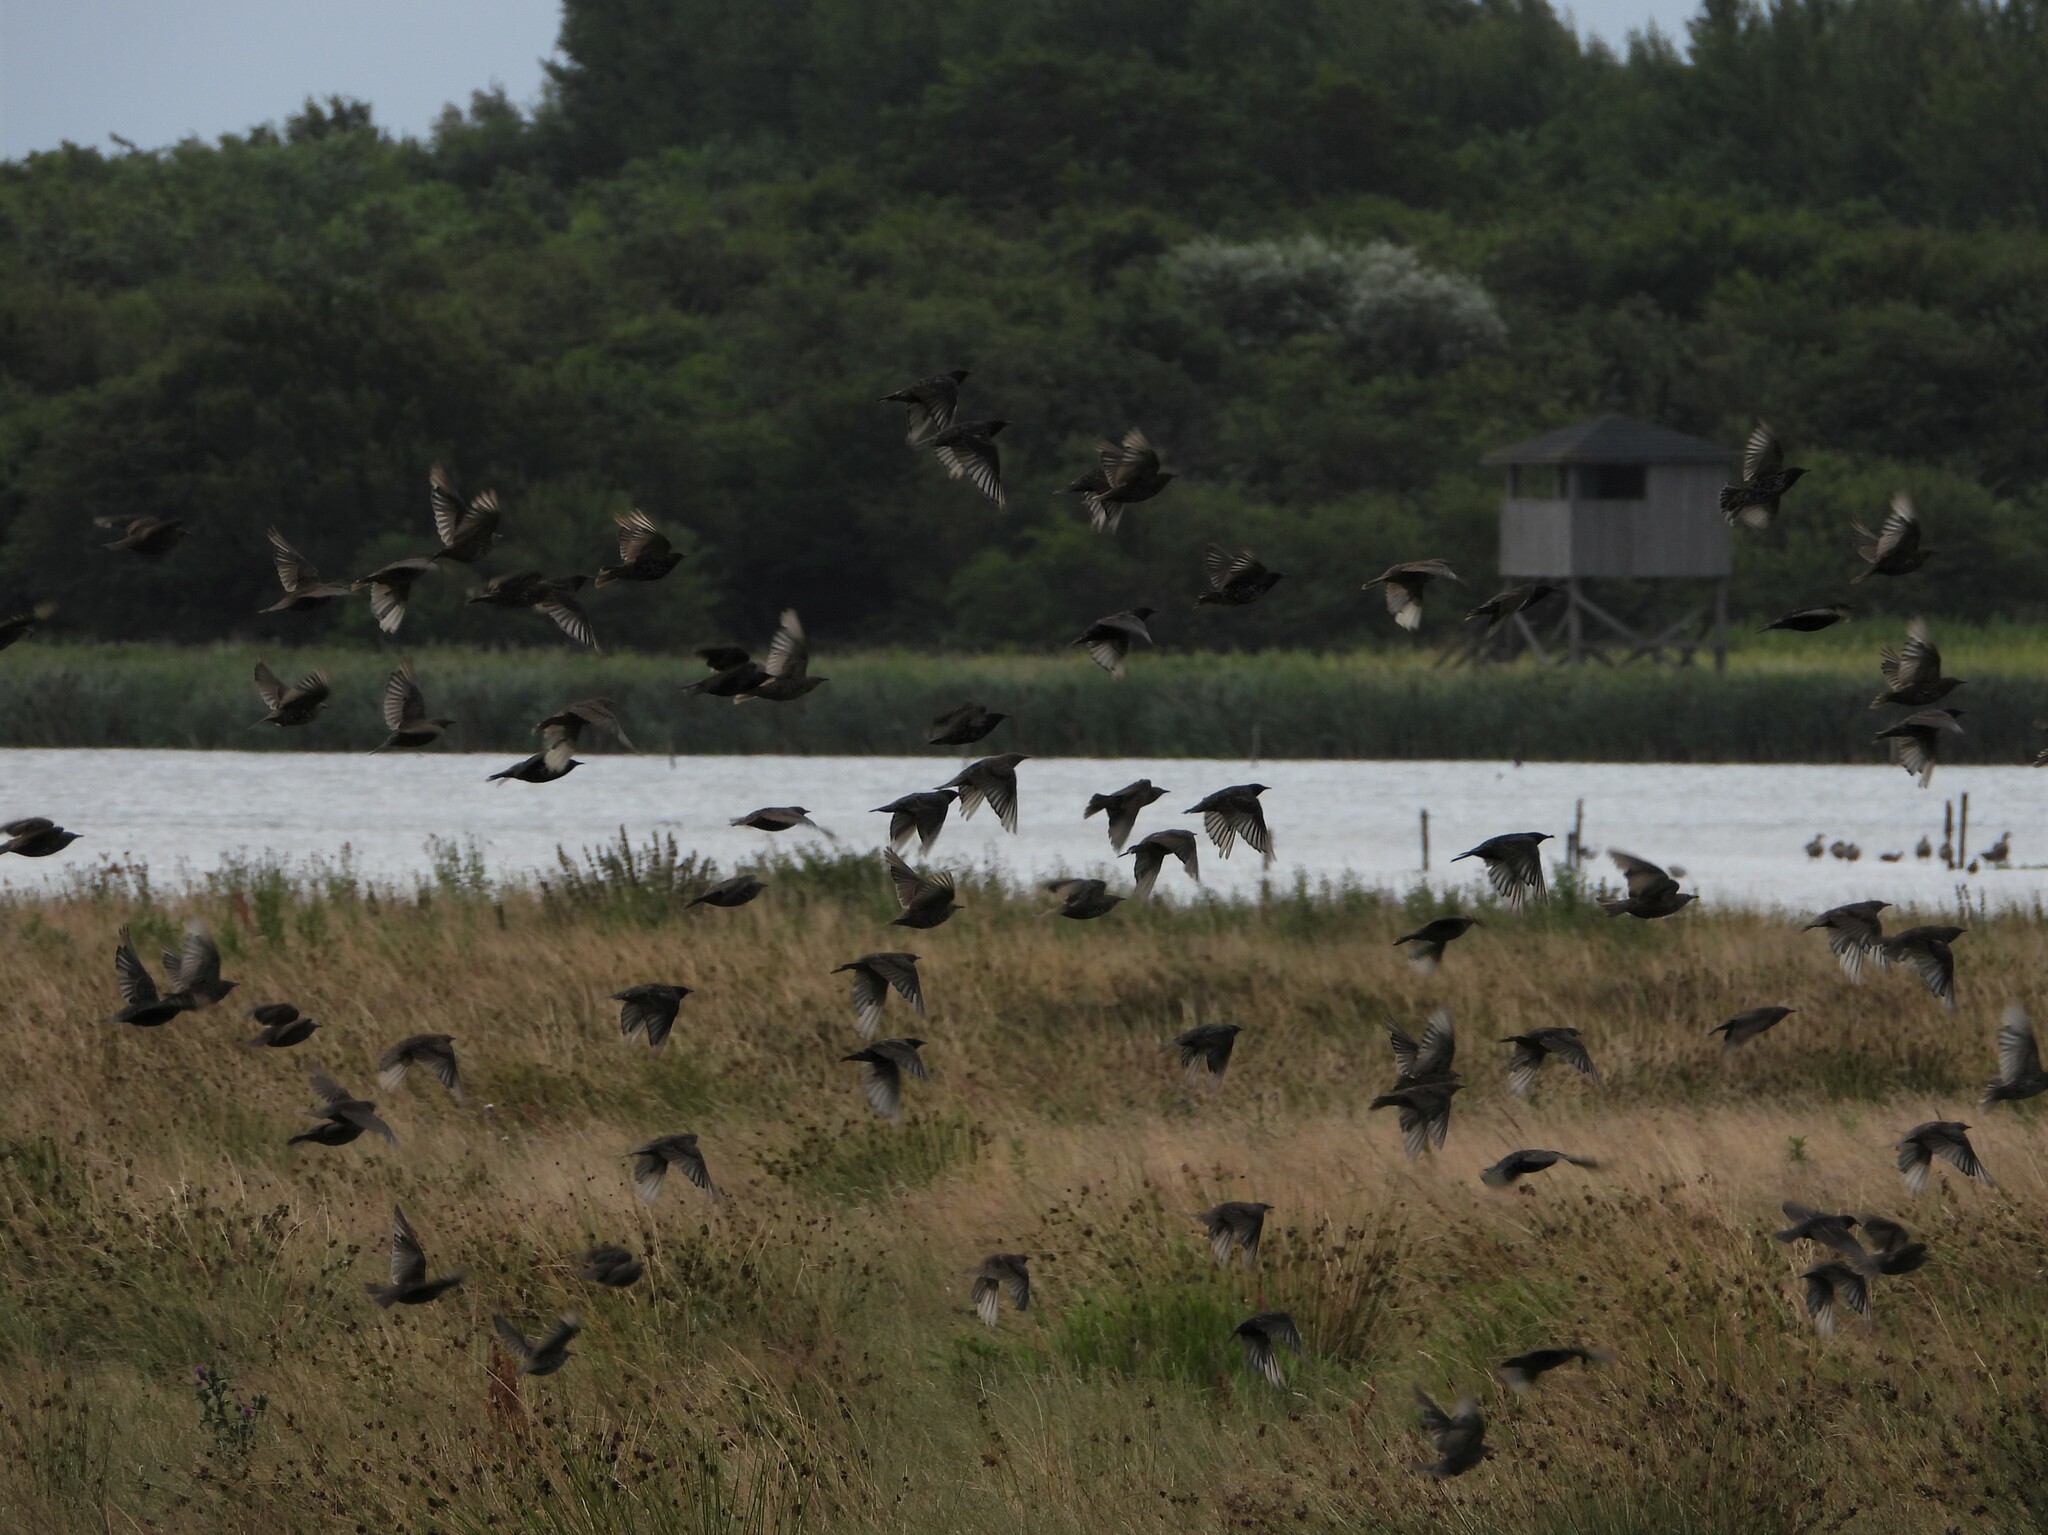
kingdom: Animalia
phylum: Chordata
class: Aves
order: Passeriformes
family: Sturnidae
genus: Sturnus
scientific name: Sturnus vulgaris
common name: Common starling
